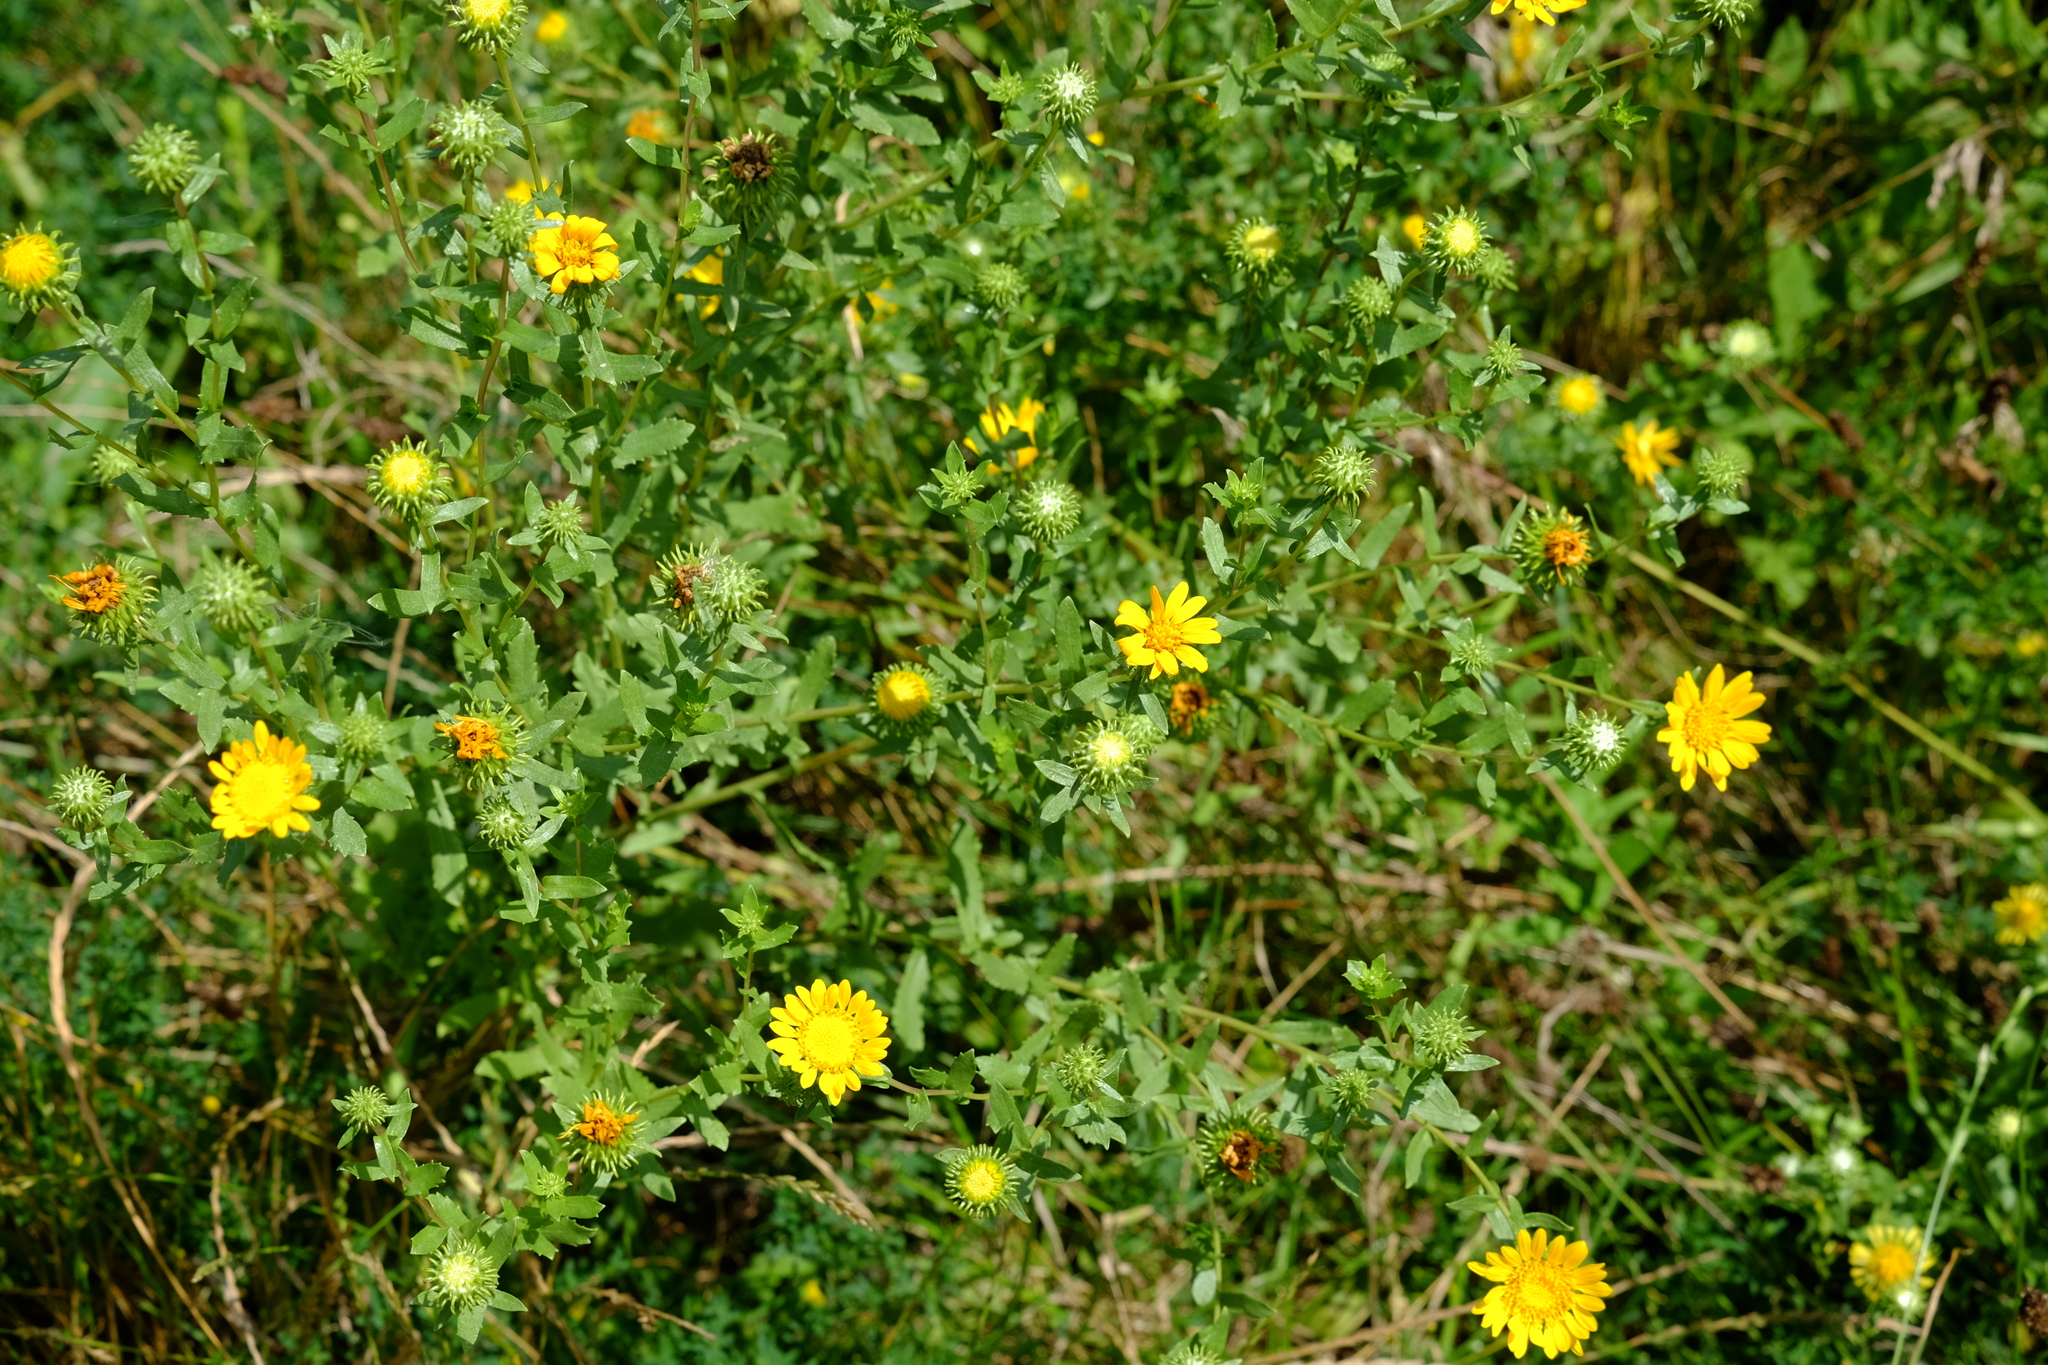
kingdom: Plantae
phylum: Tracheophyta
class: Magnoliopsida
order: Asterales
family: Asteraceae
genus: Grindelia
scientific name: Grindelia squarrosa
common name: Curly-cup gumweed
